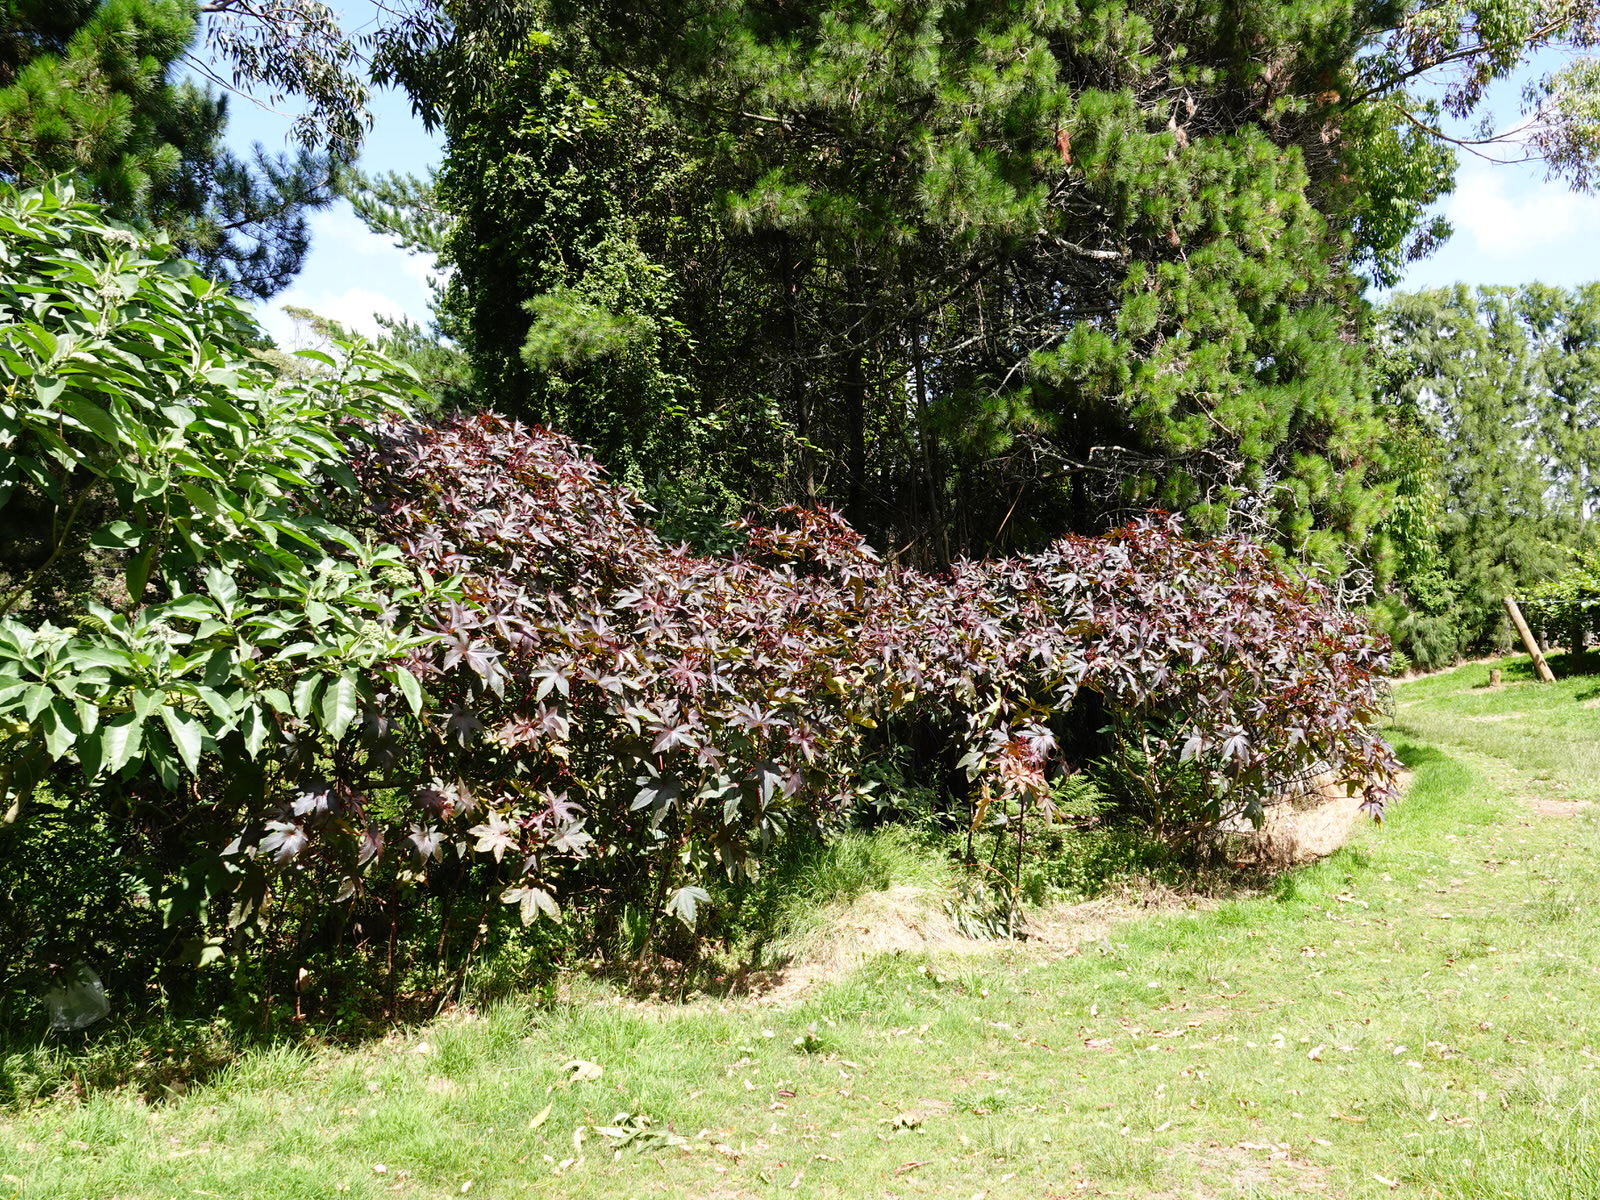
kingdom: Animalia
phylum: Arthropoda
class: Insecta
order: Hemiptera
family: Pentatomidae
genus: Nezara
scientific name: Nezara viridula
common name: Southern green stink bug
